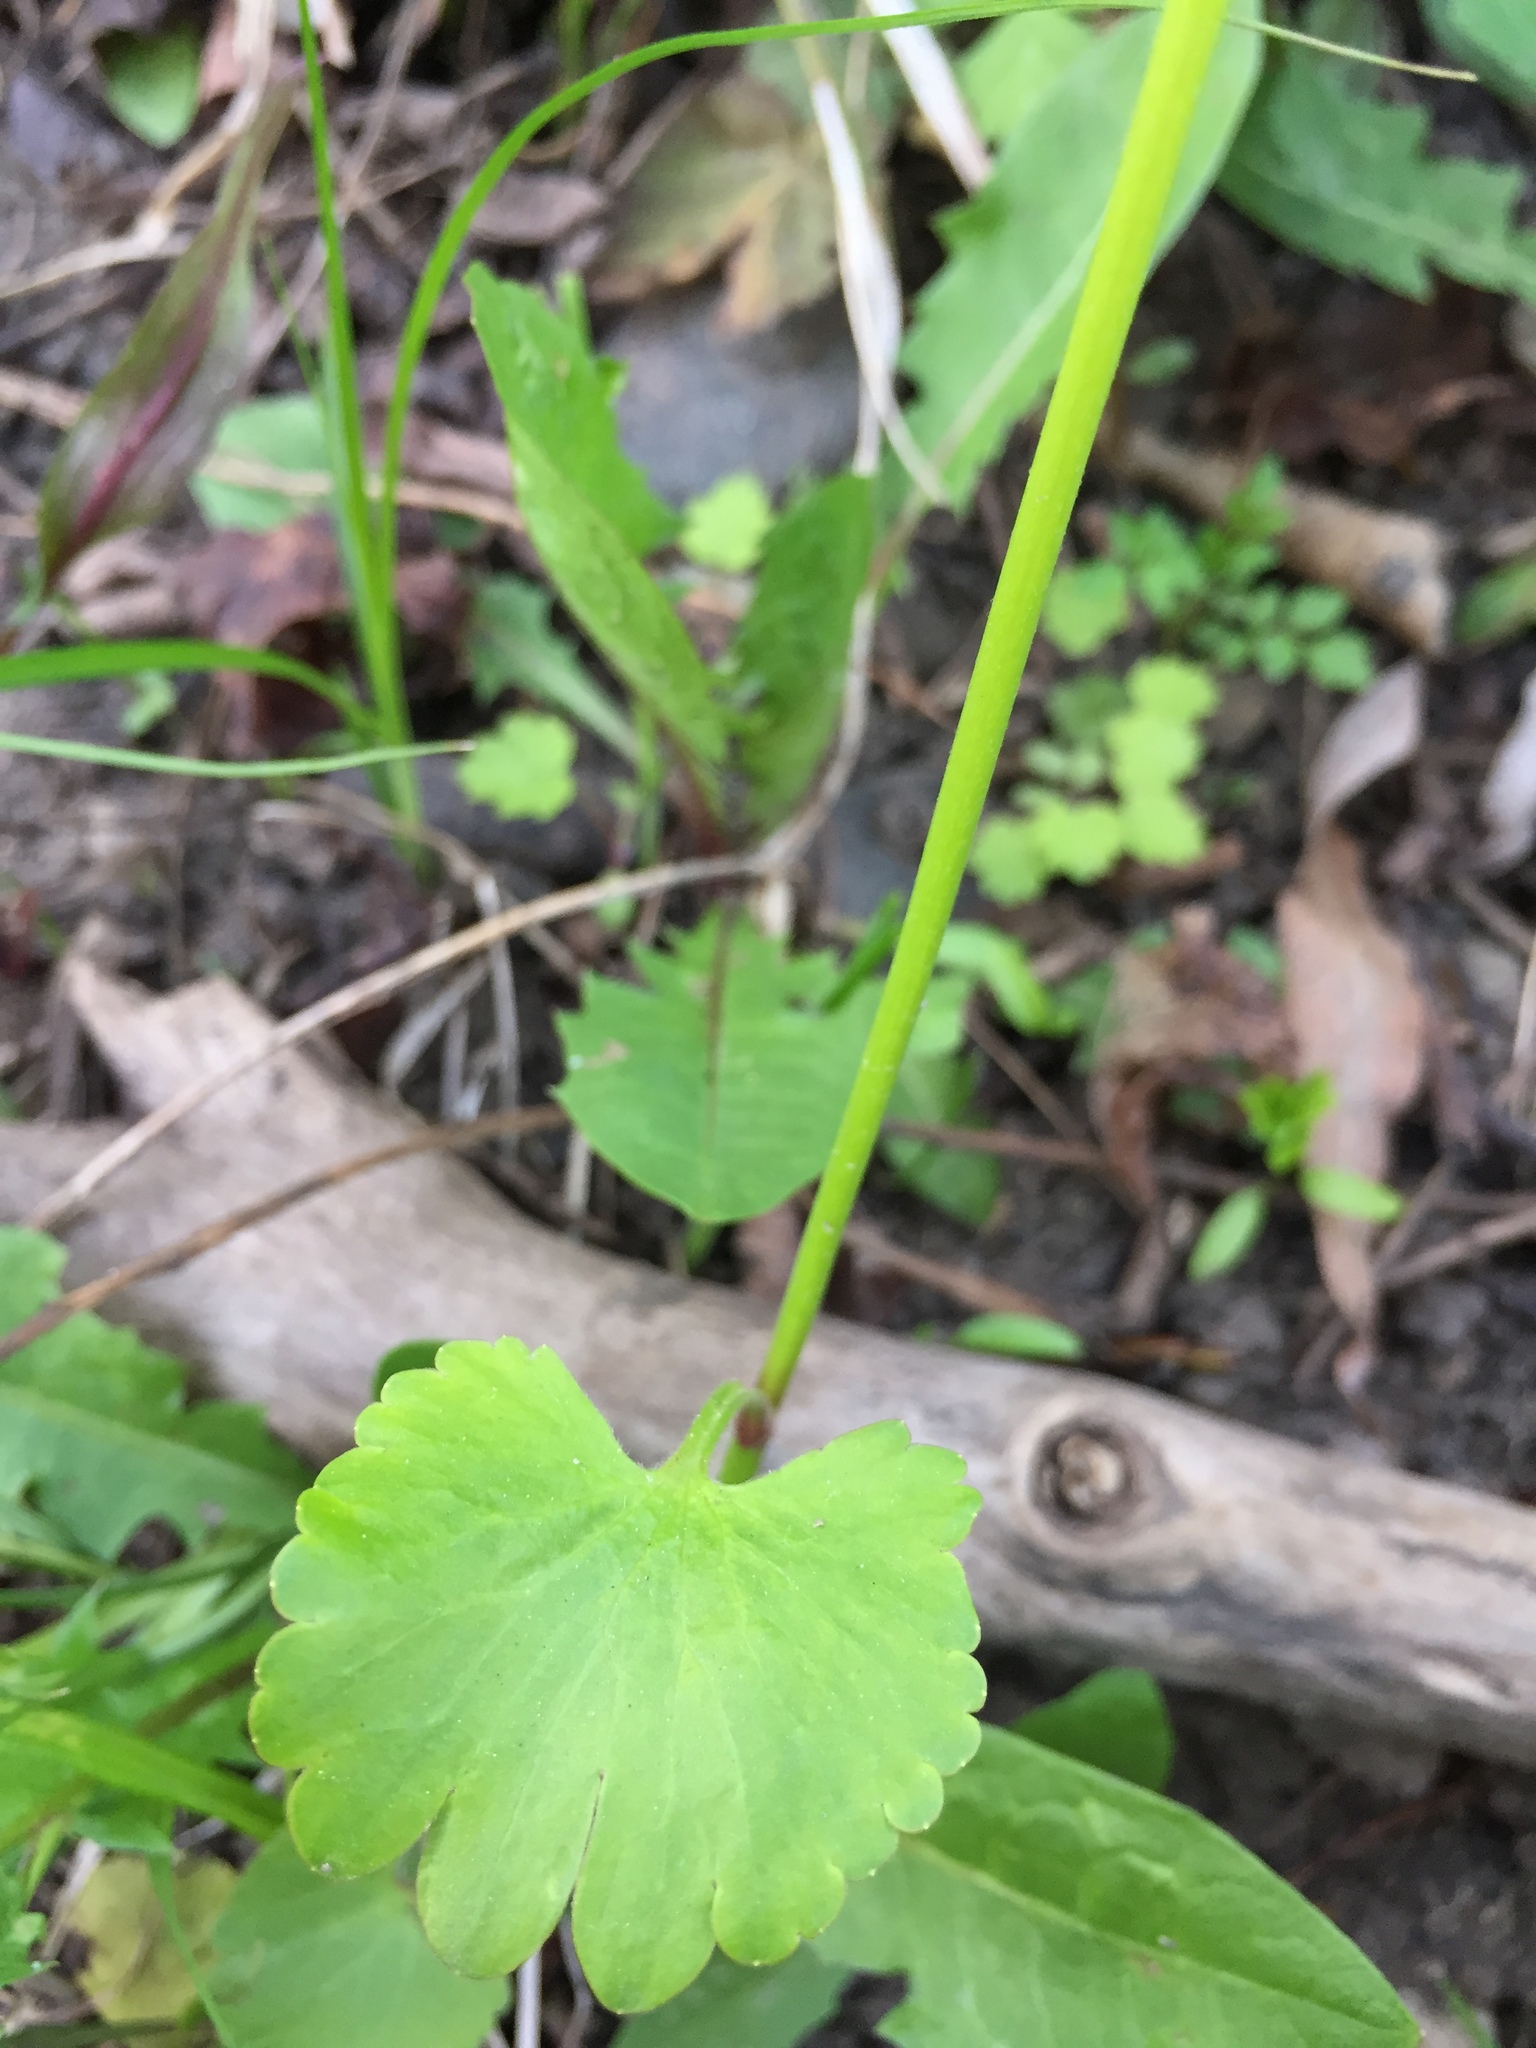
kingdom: Plantae
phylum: Tracheophyta
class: Magnoliopsida
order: Ranunculales
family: Ranunculaceae
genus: Ranunculus
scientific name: Ranunculus abortivus
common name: Early wood buttercup
